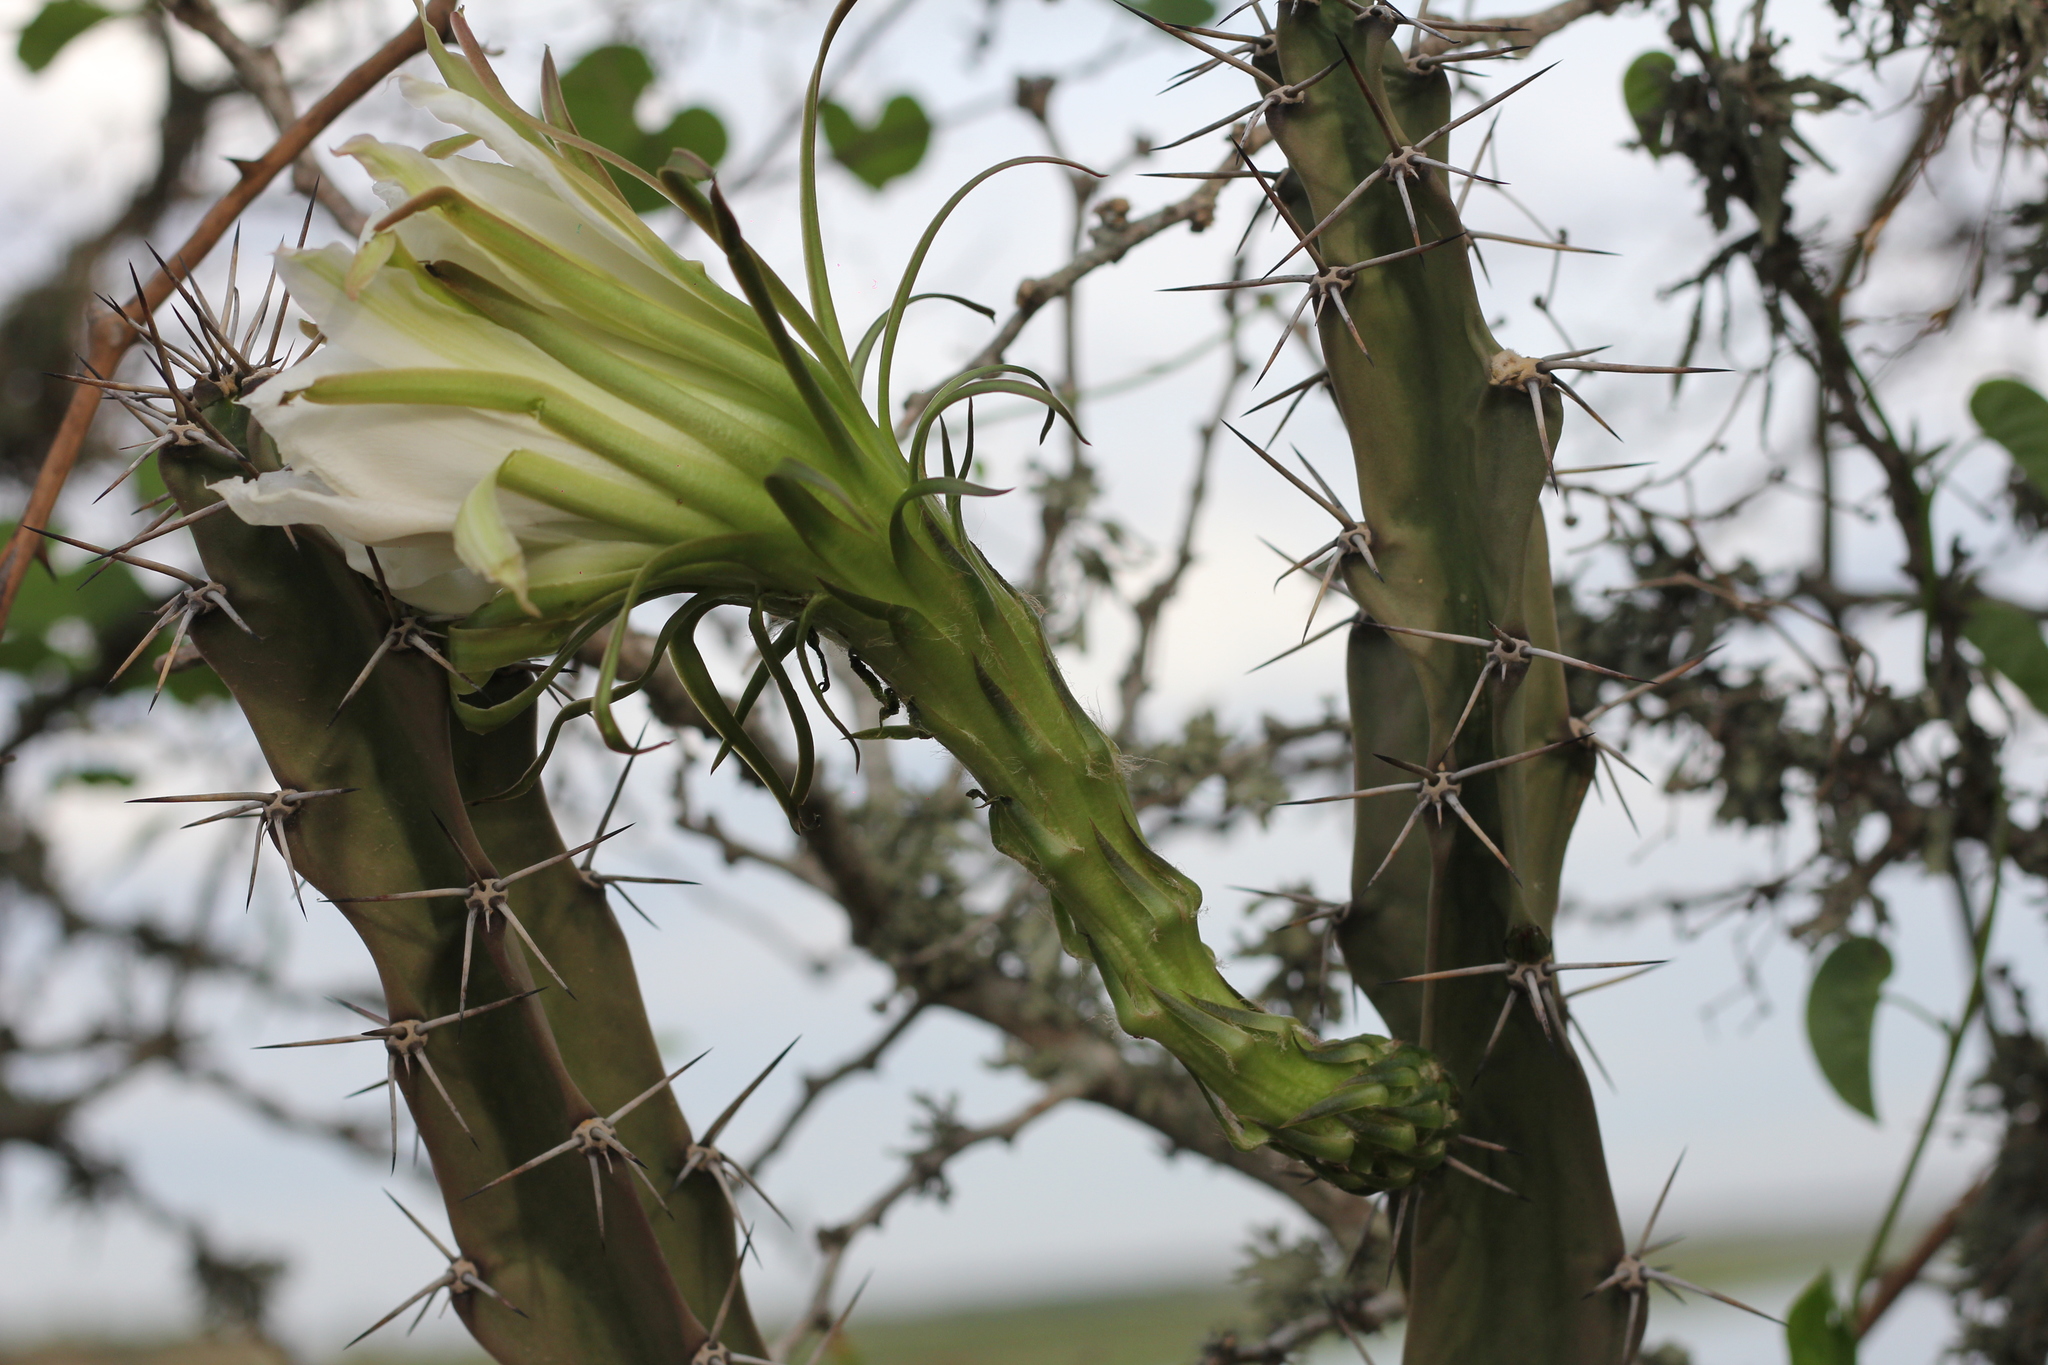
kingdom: Plantae
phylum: Tracheophyta
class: Magnoliopsida
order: Caryophyllales
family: Cactaceae
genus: Harrisia
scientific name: Harrisia bonplandii
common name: Queen of the night cactus
